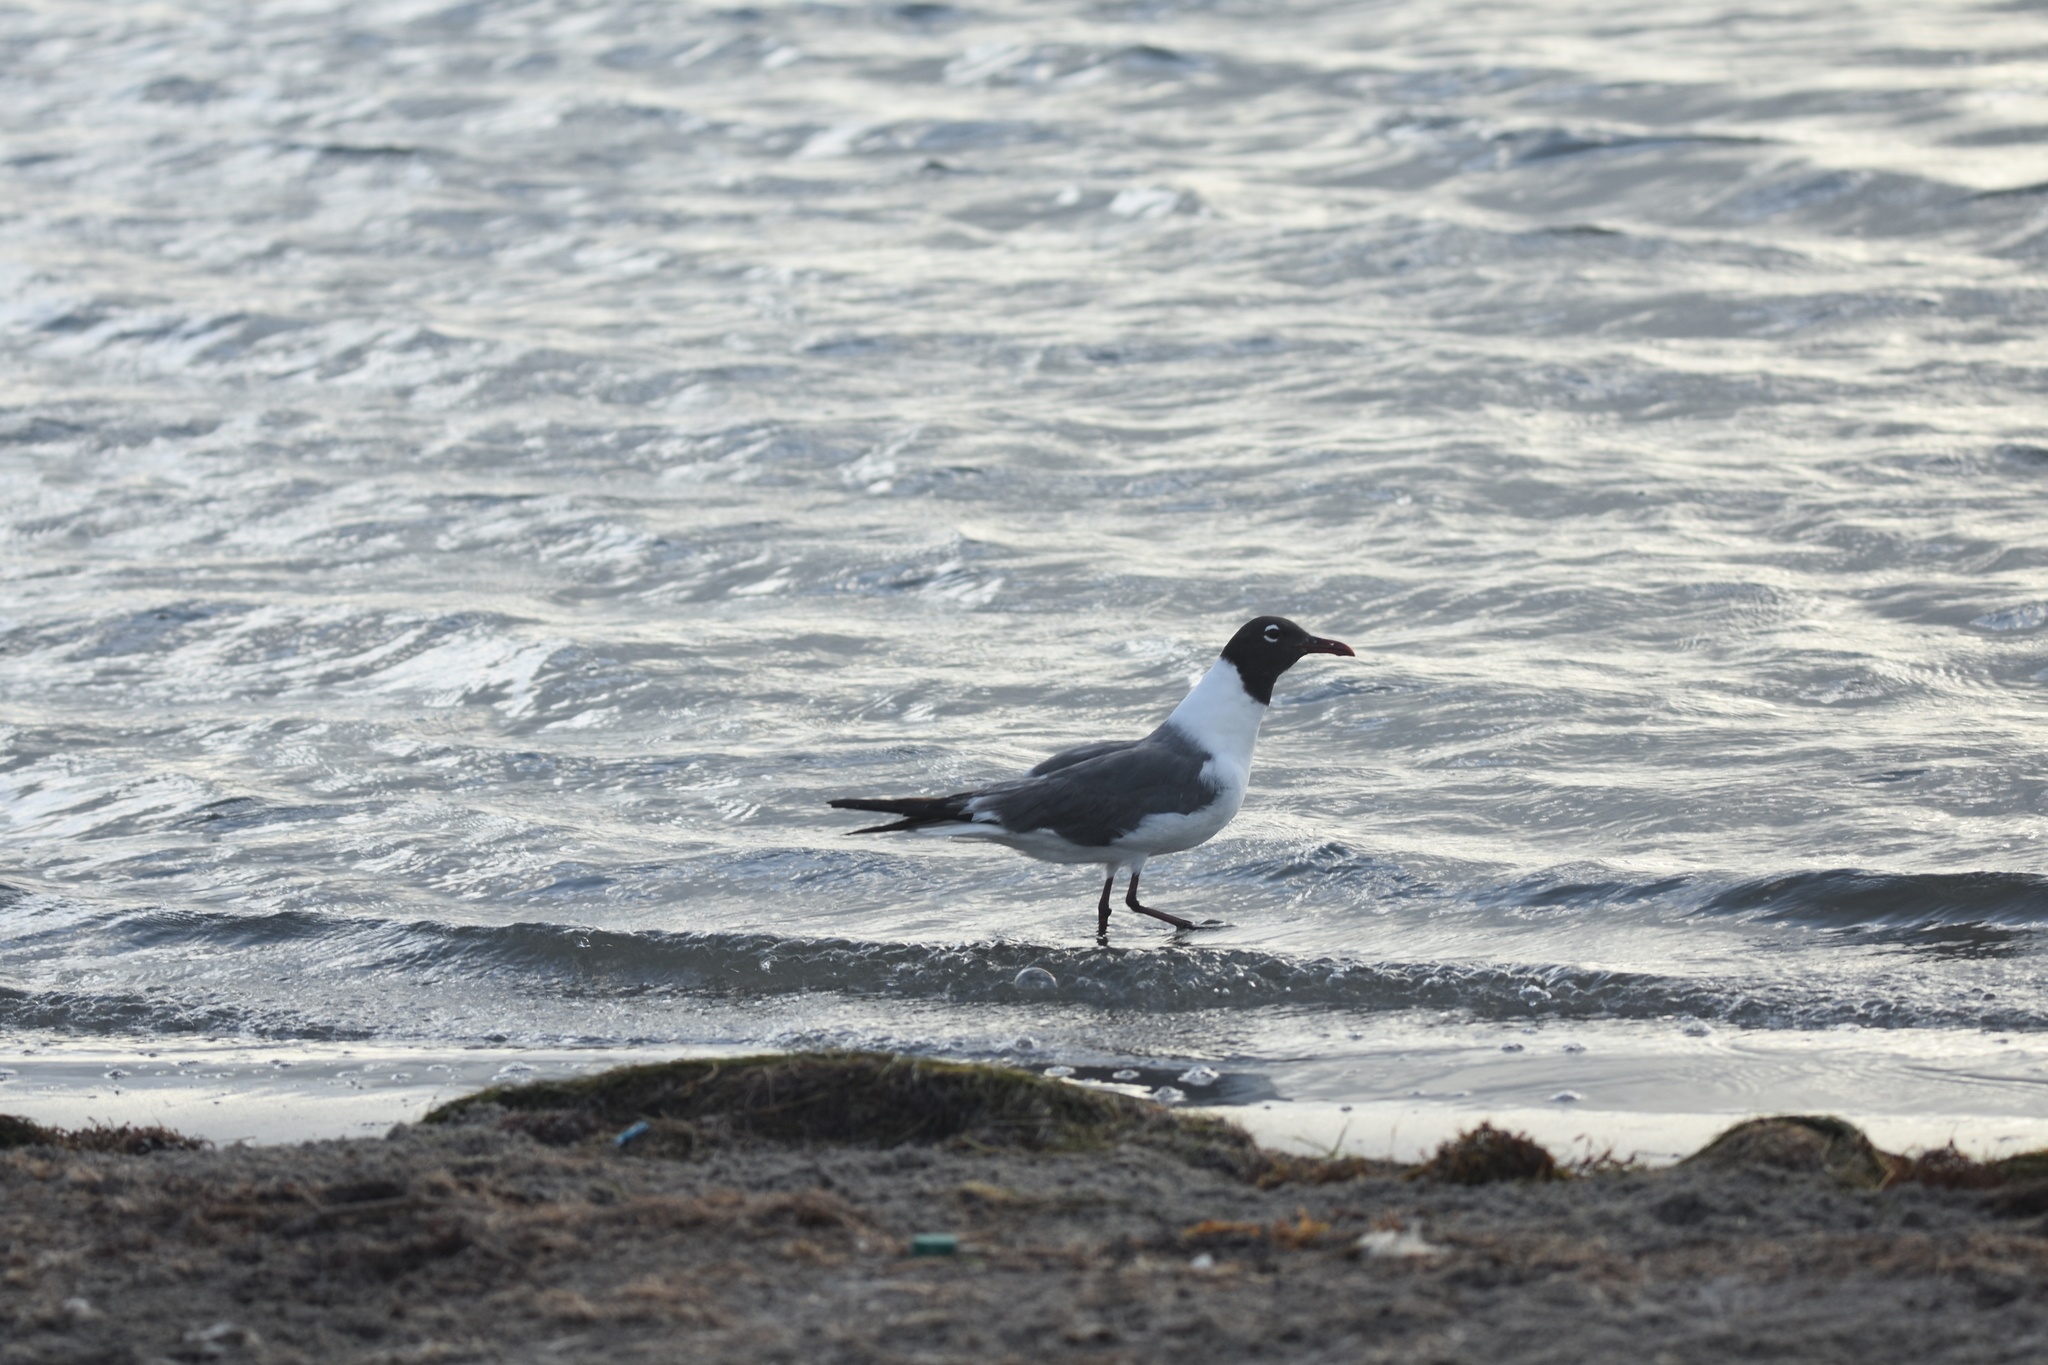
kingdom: Animalia
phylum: Chordata
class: Aves
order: Charadriiformes
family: Laridae
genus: Leucophaeus
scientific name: Leucophaeus atricilla
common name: Laughing gull
